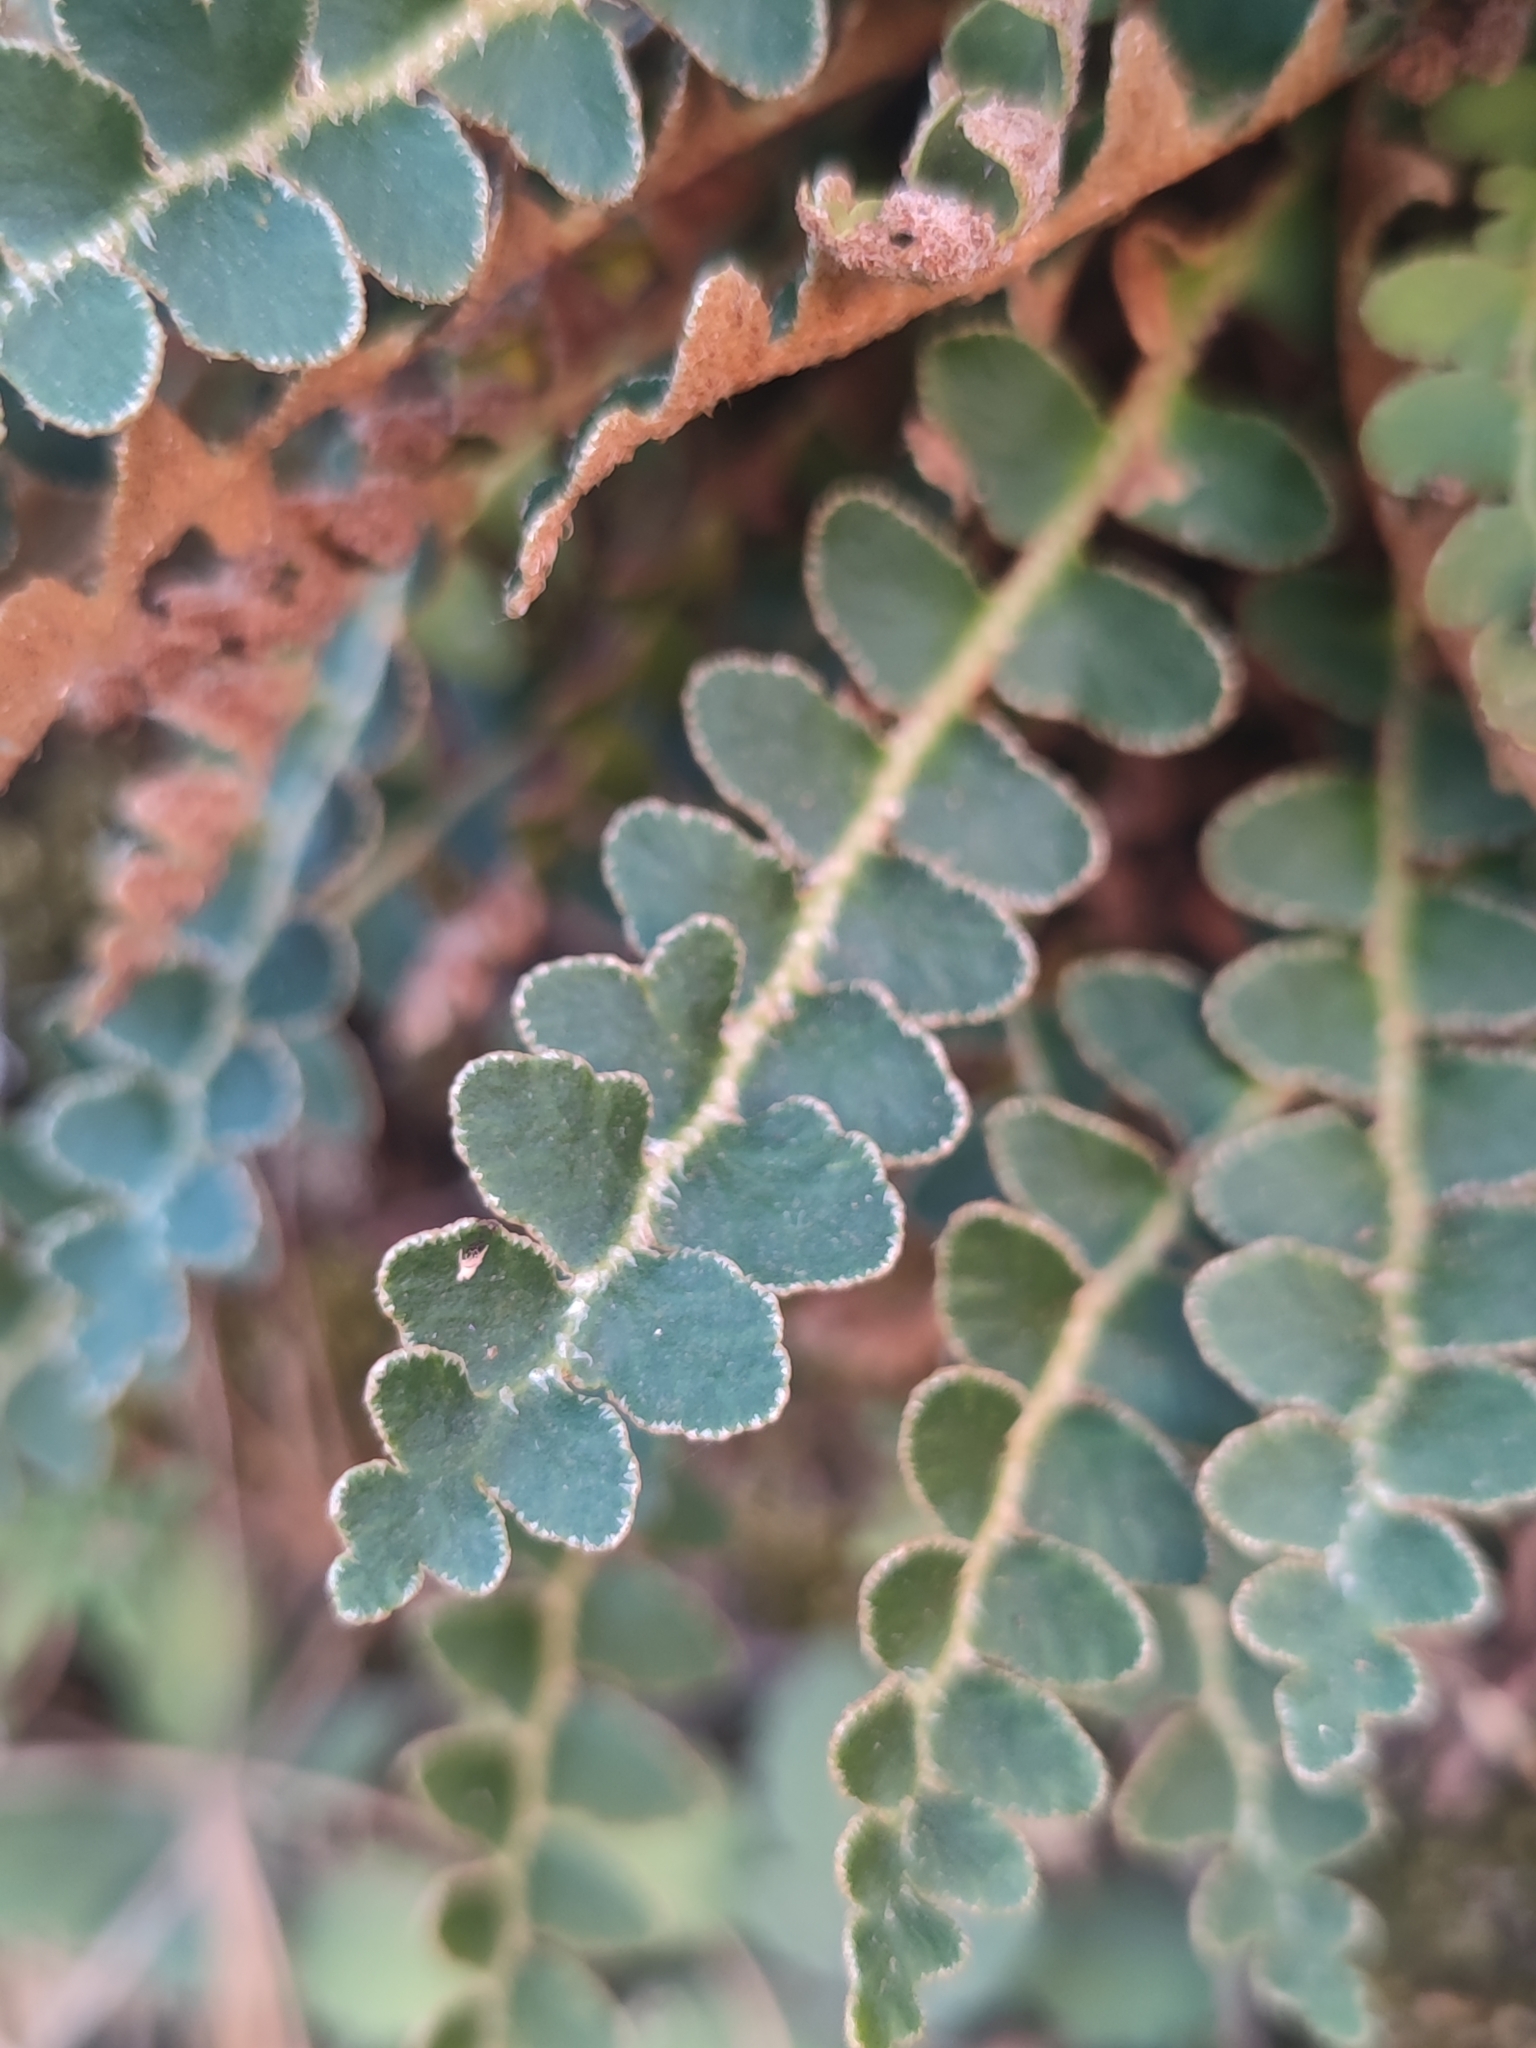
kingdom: Plantae
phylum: Tracheophyta
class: Polypodiopsida
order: Polypodiales
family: Aspleniaceae
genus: Asplenium
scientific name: Asplenium ceterach
